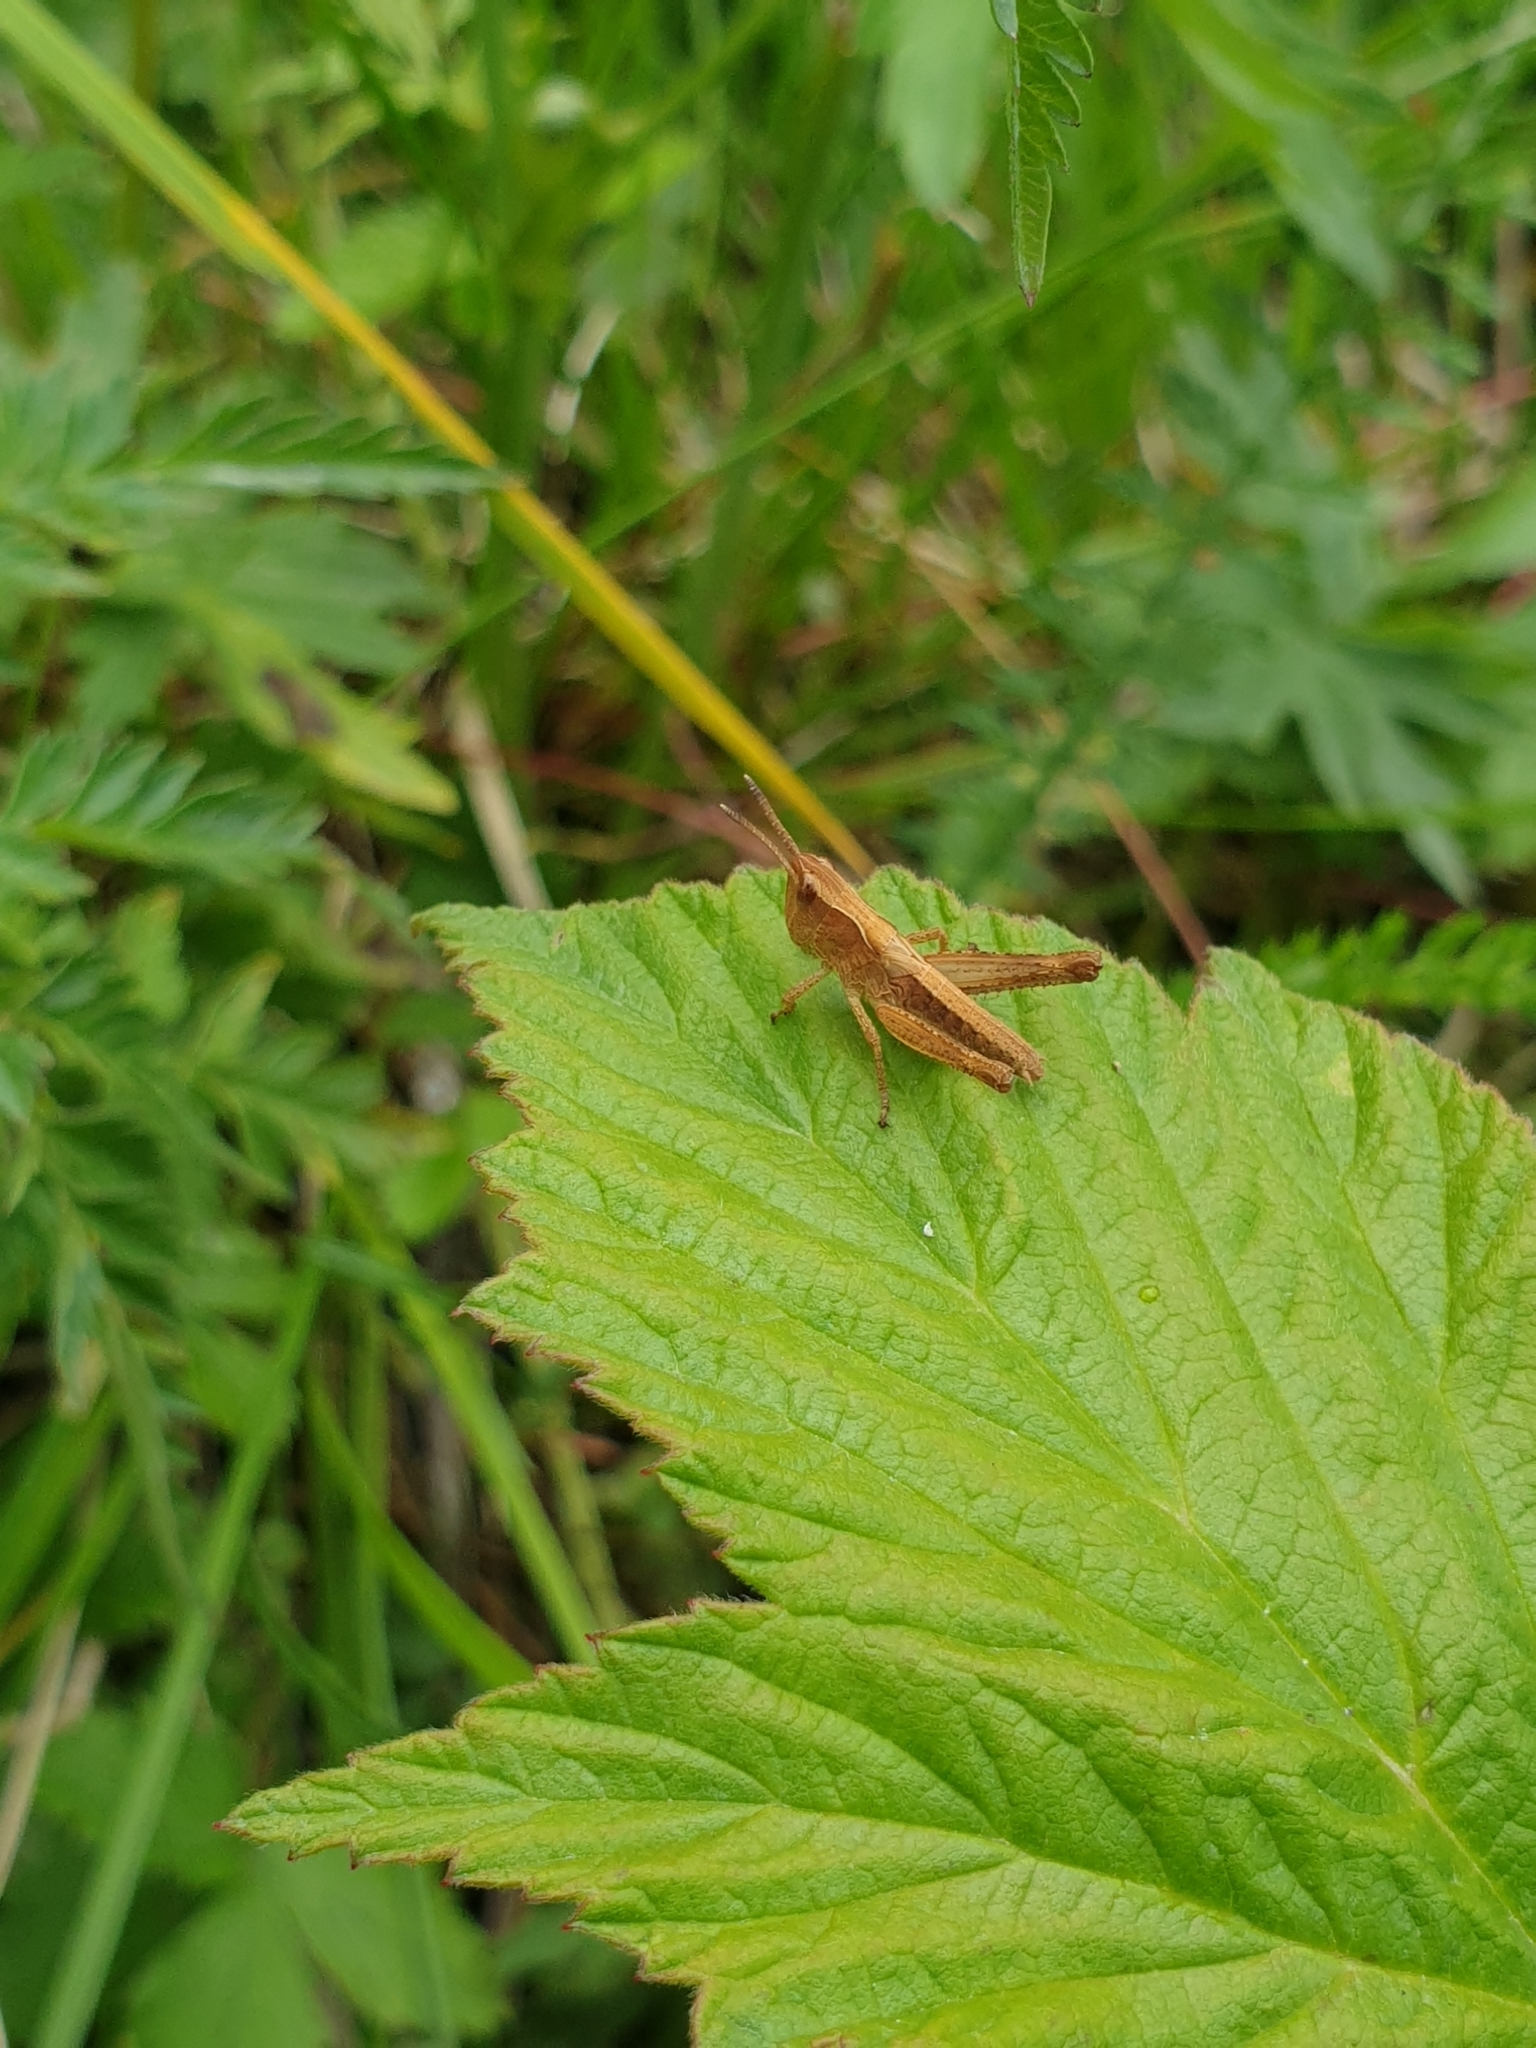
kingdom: Animalia
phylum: Arthropoda
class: Insecta
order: Orthoptera
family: Acrididae
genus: Gomphocerippus
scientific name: Gomphocerippus rufus
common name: Rufous grasshopper
